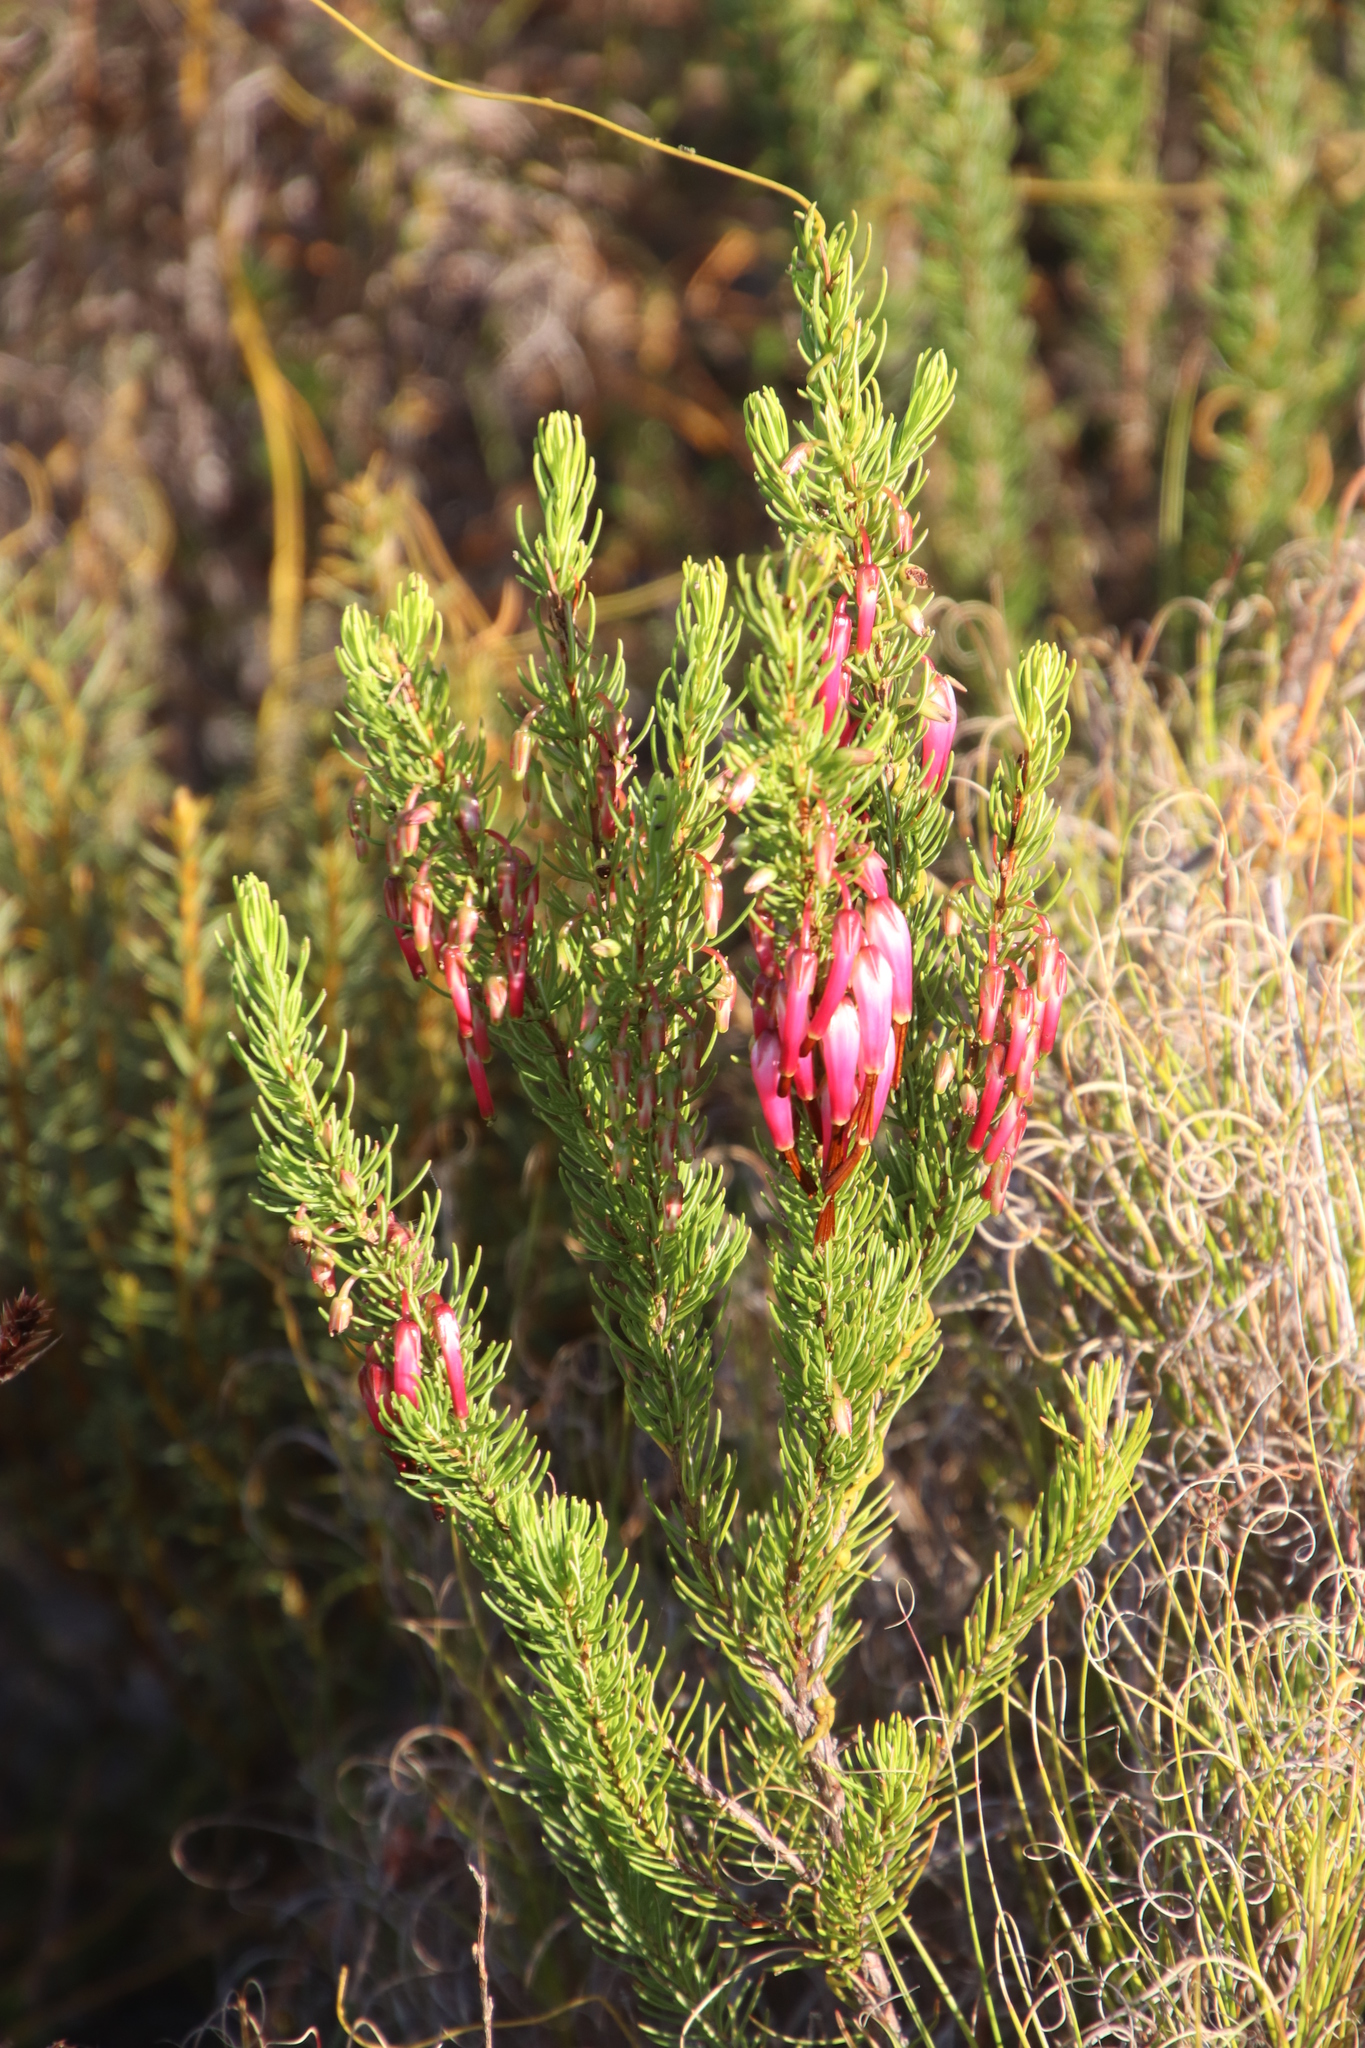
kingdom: Plantae
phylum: Tracheophyta
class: Magnoliopsida
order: Ericales
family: Ericaceae
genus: Erica
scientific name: Erica plukenetii
